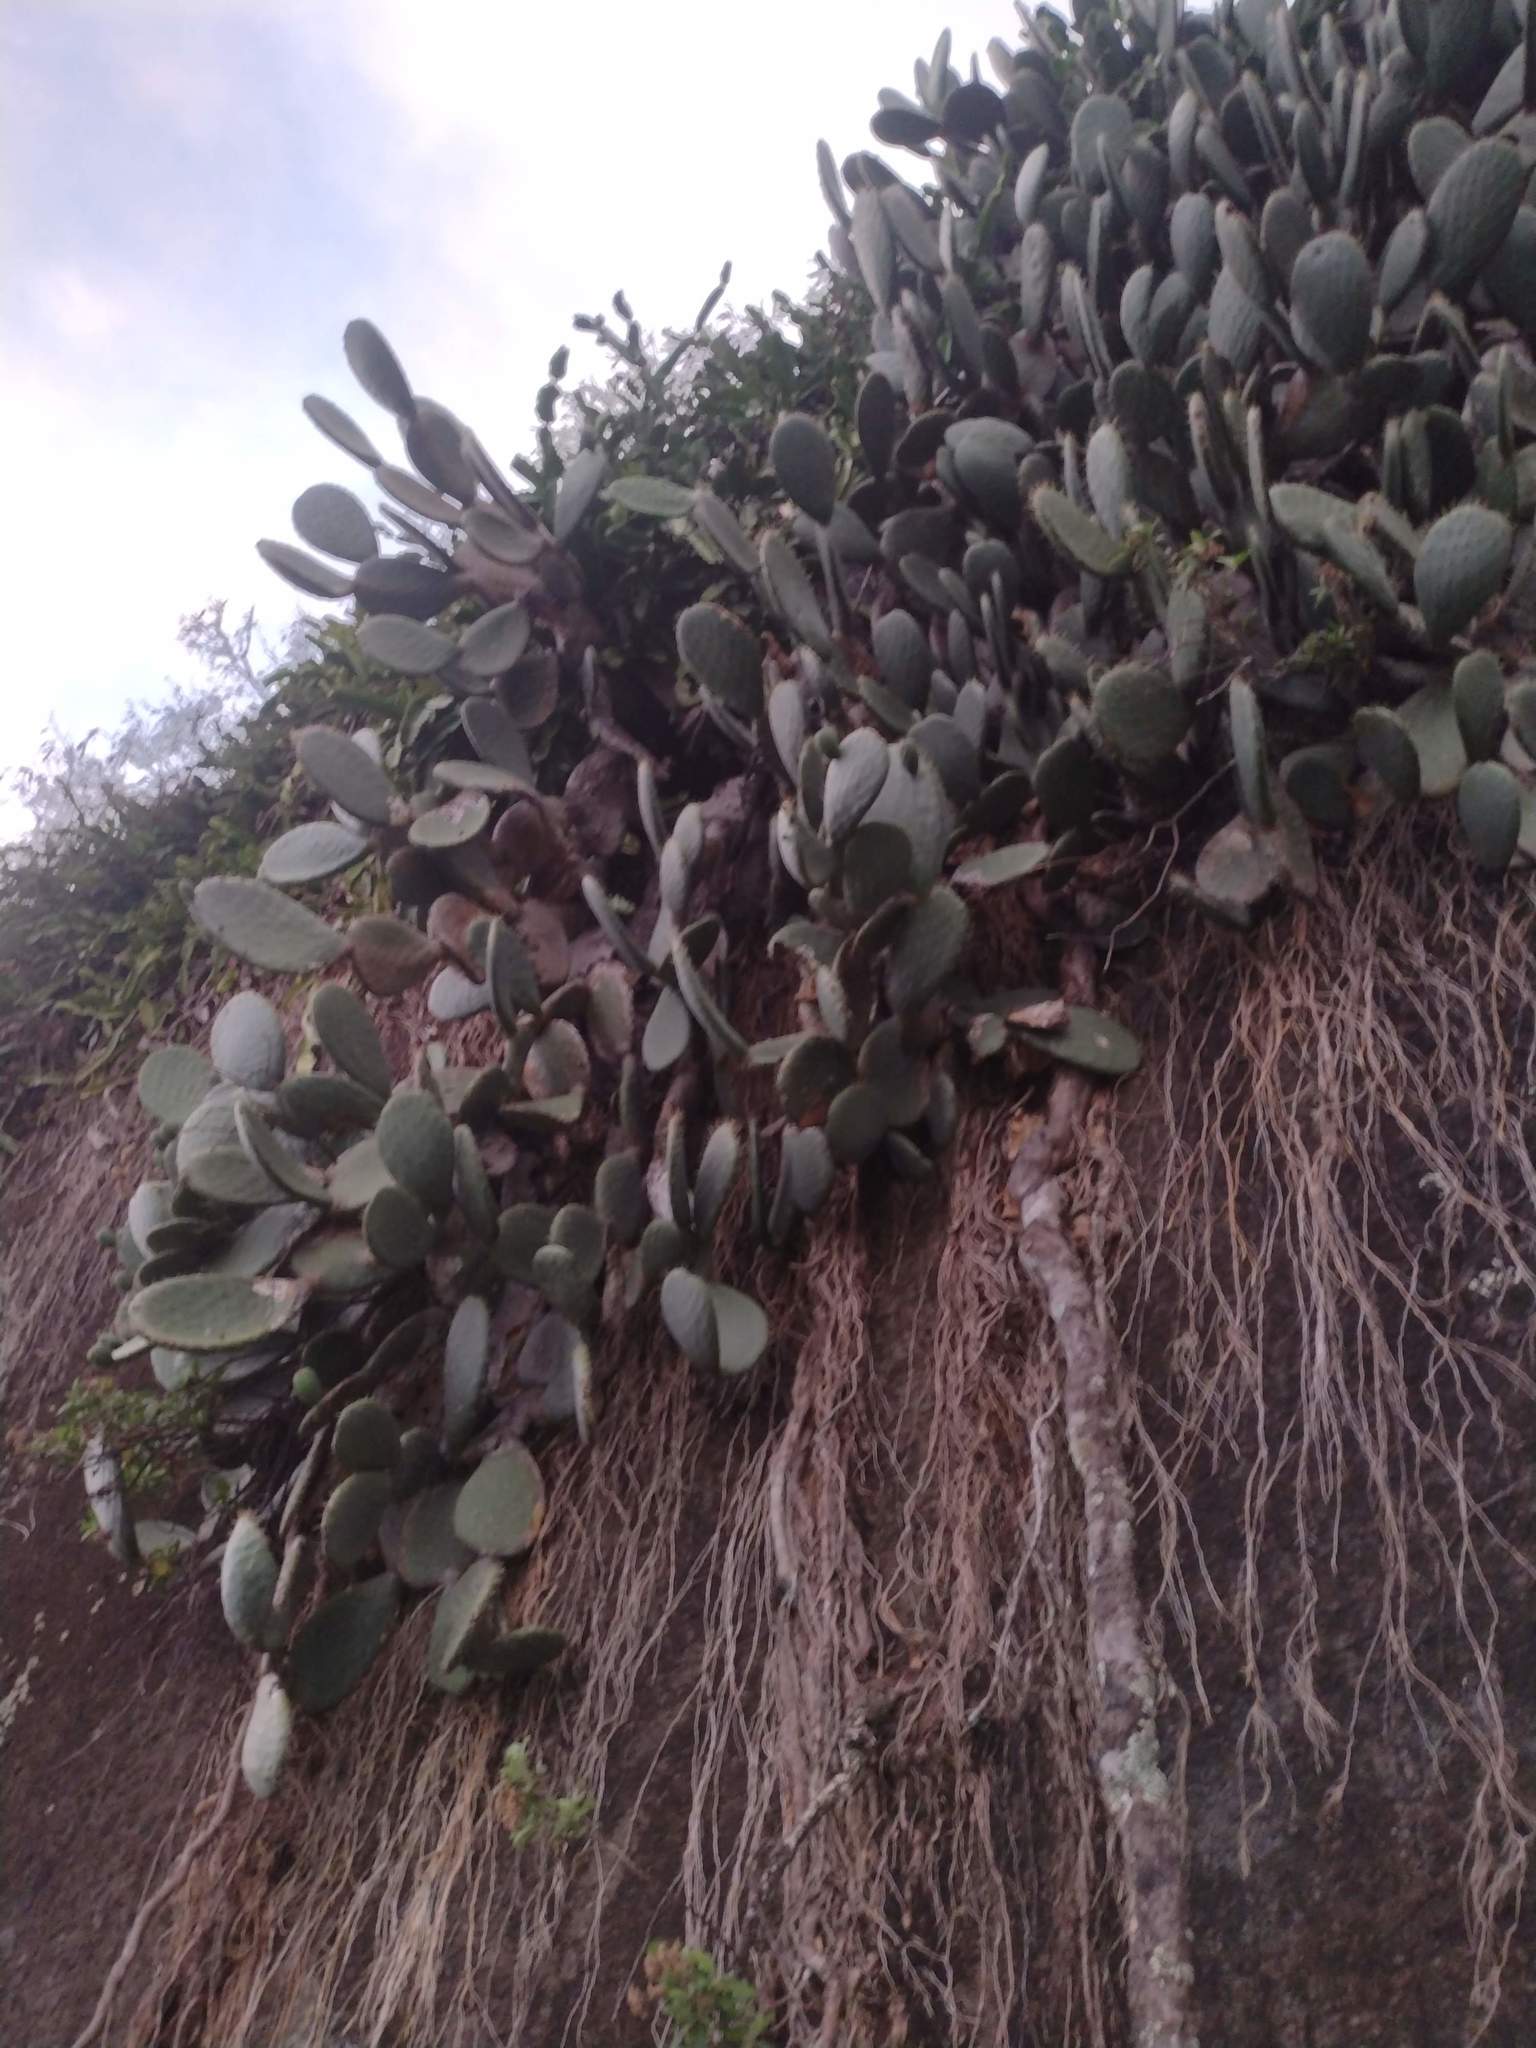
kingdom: Plantae
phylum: Tracheophyta
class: Magnoliopsida
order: Caryophyllales
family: Cactaceae
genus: Opuntia
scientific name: Opuntia ficus-indica
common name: Barbary fig
